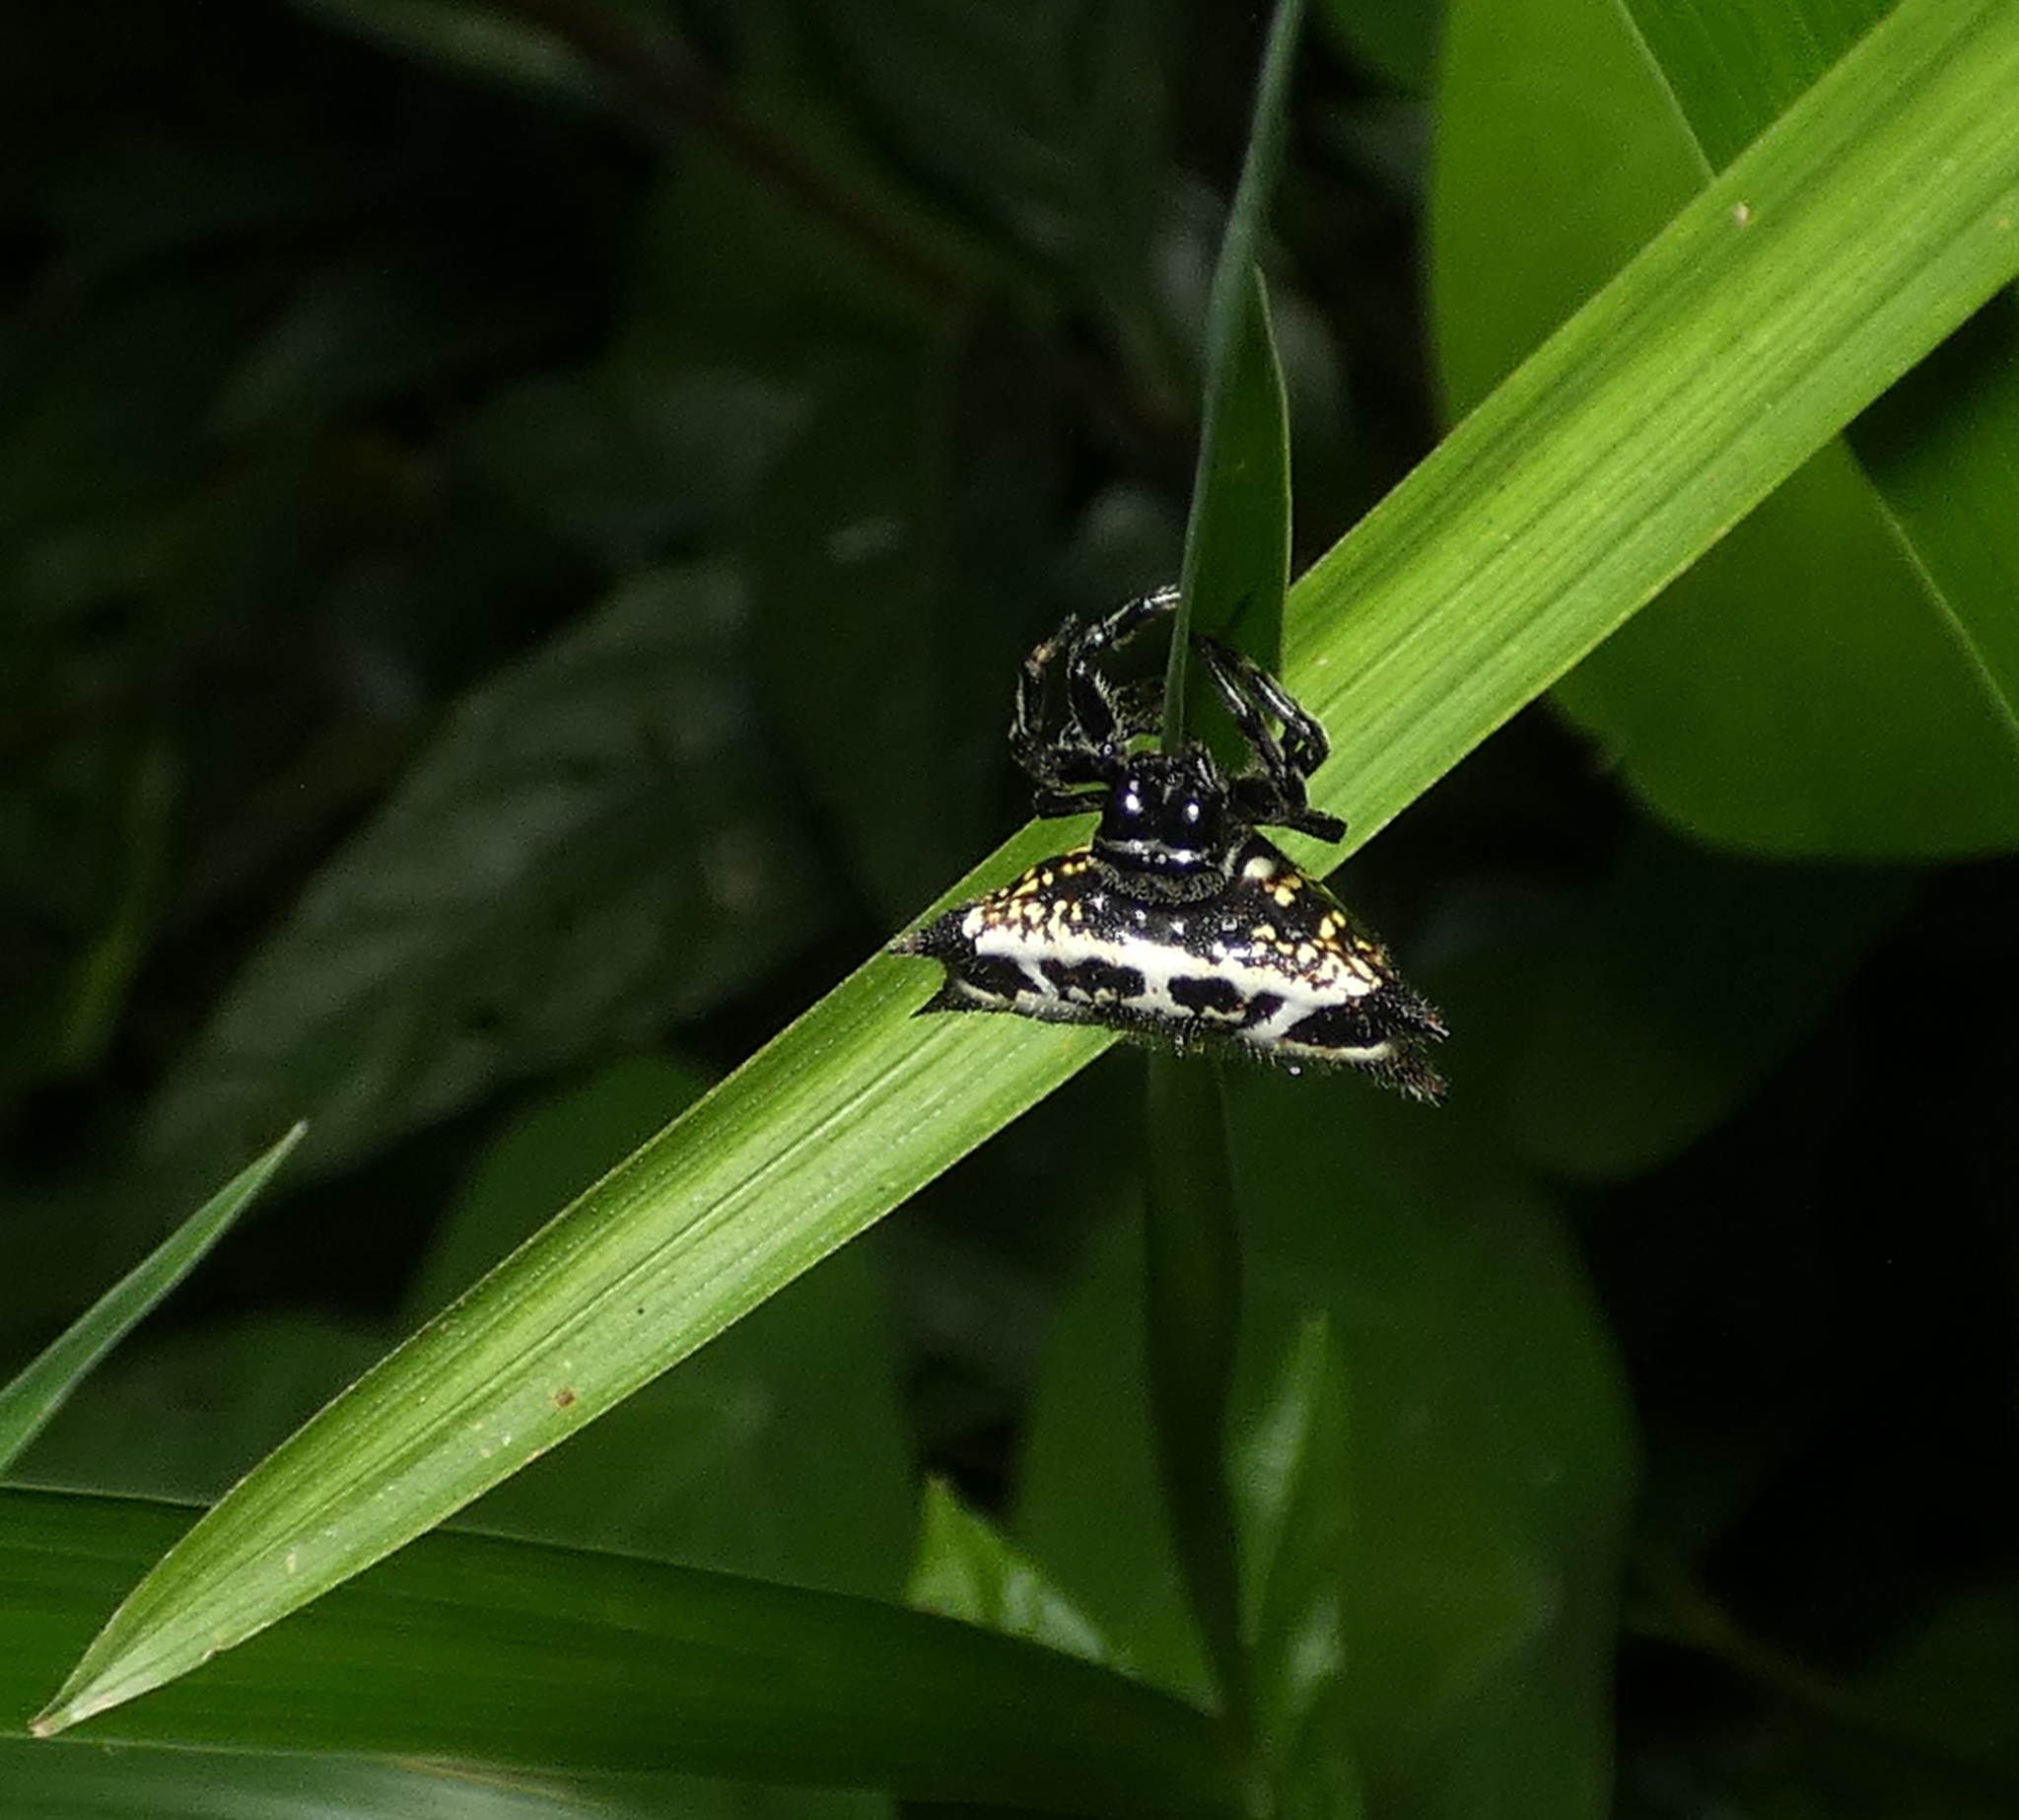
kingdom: Animalia
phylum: Arthropoda
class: Arachnida
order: Araneae
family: Araneidae
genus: Gasteracantha
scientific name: Gasteracantha cancriformis
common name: Orb weavers
